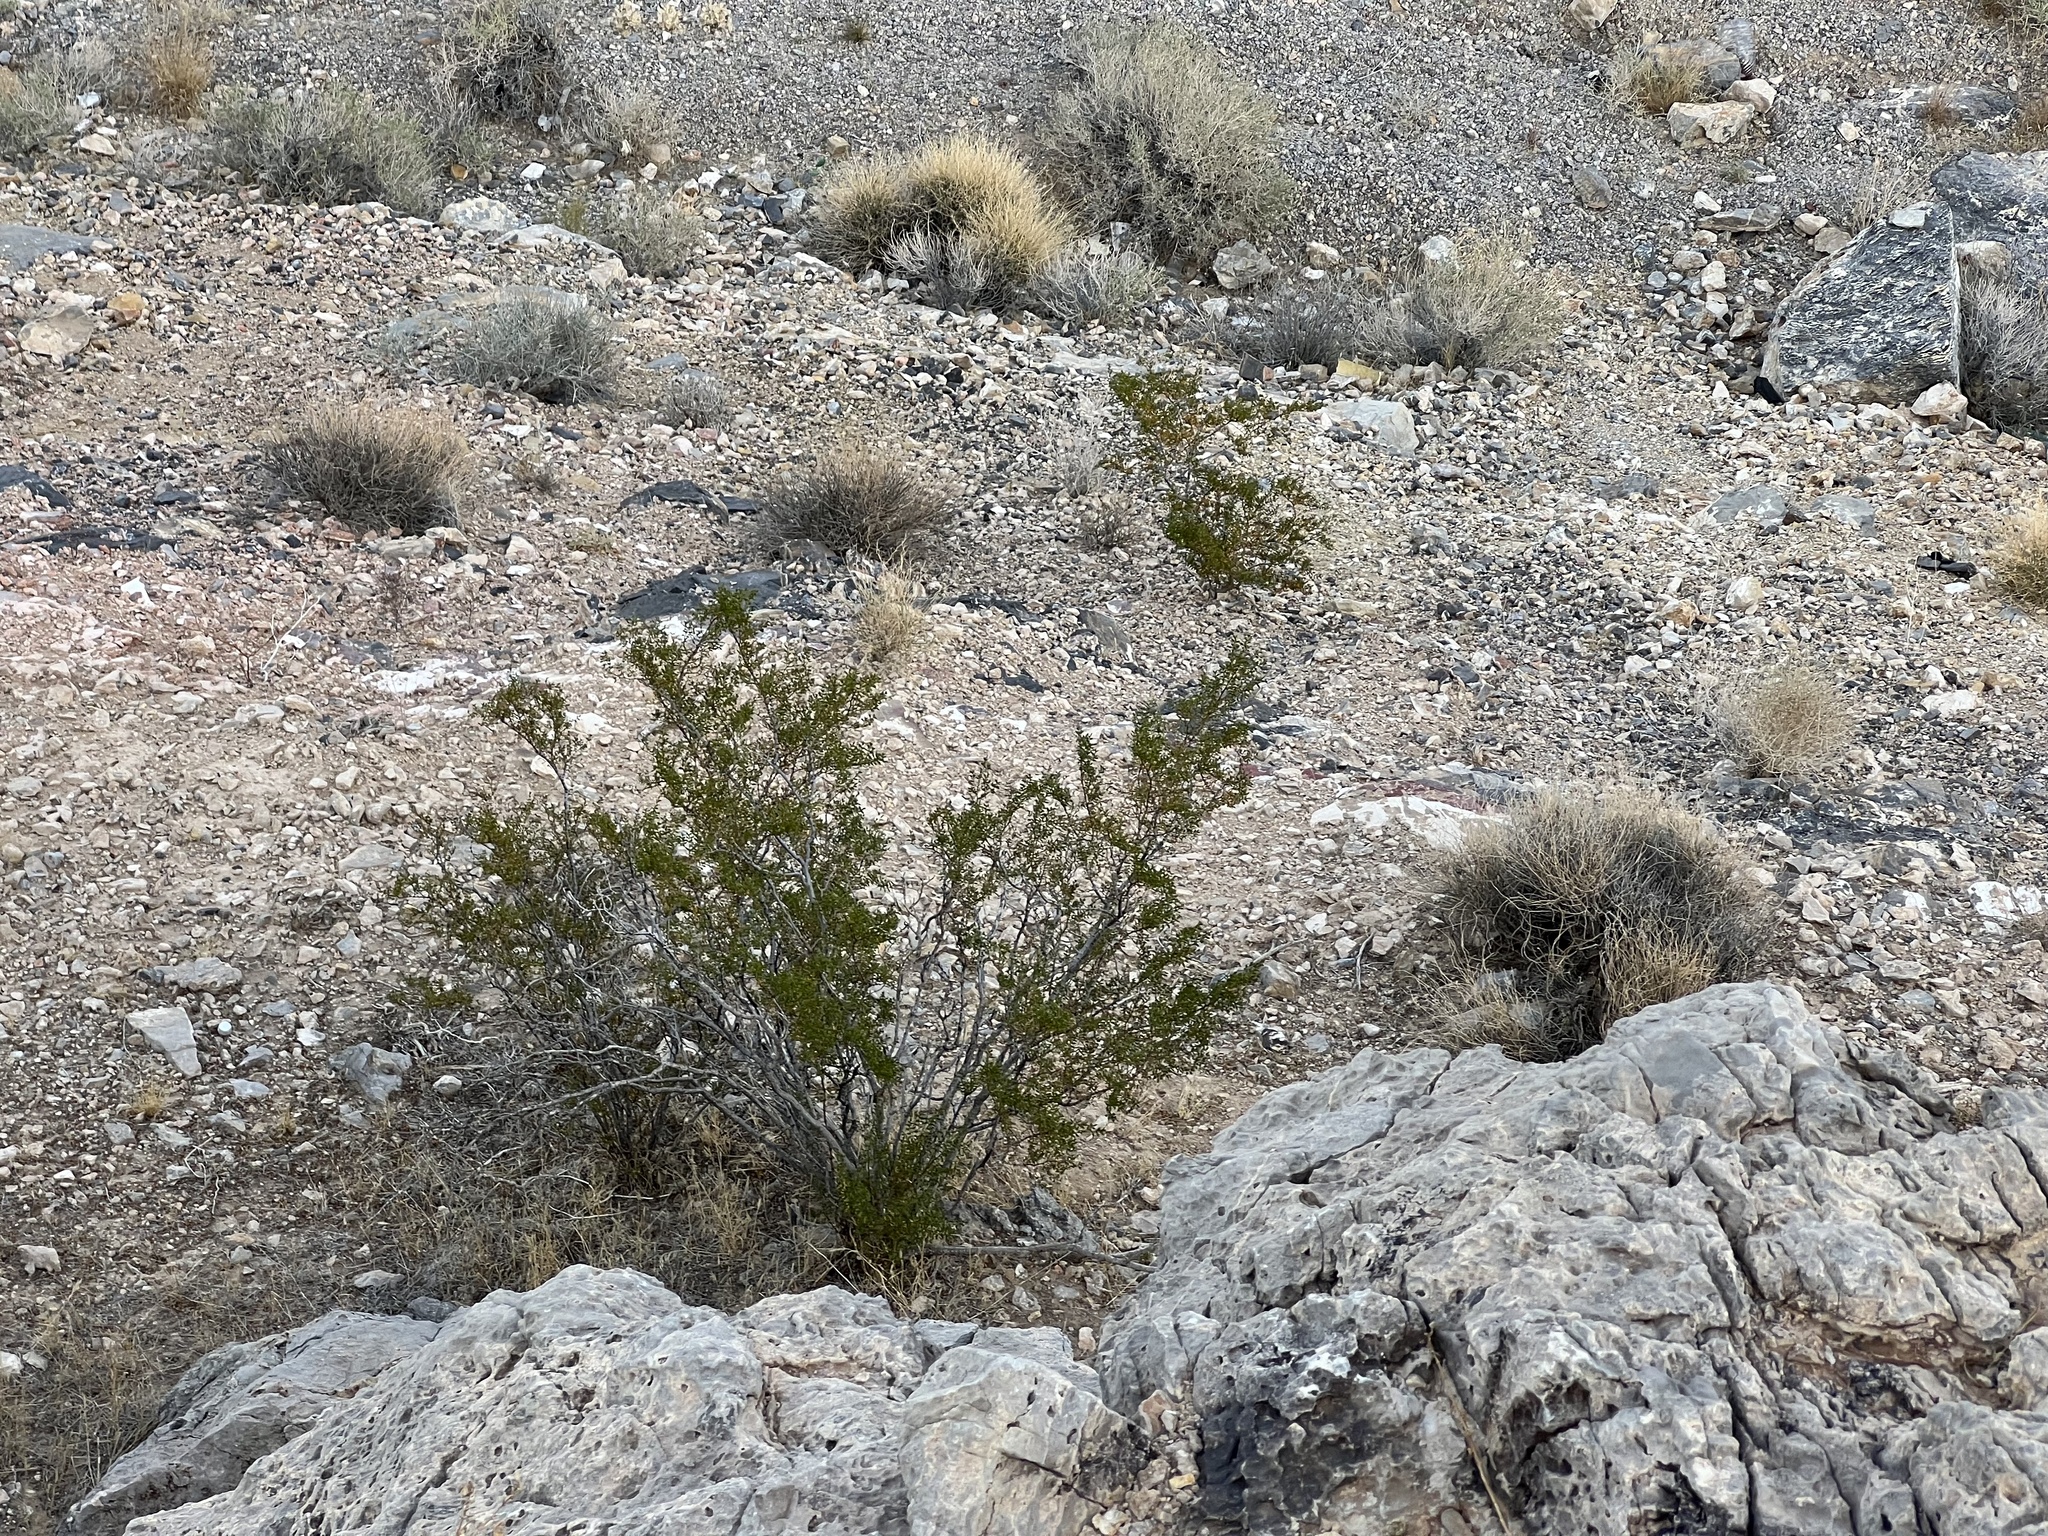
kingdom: Plantae
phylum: Tracheophyta
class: Magnoliopsida
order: Zygophyllales
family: Zygophyllaceae
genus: Larrea
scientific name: Larrea tridentata
